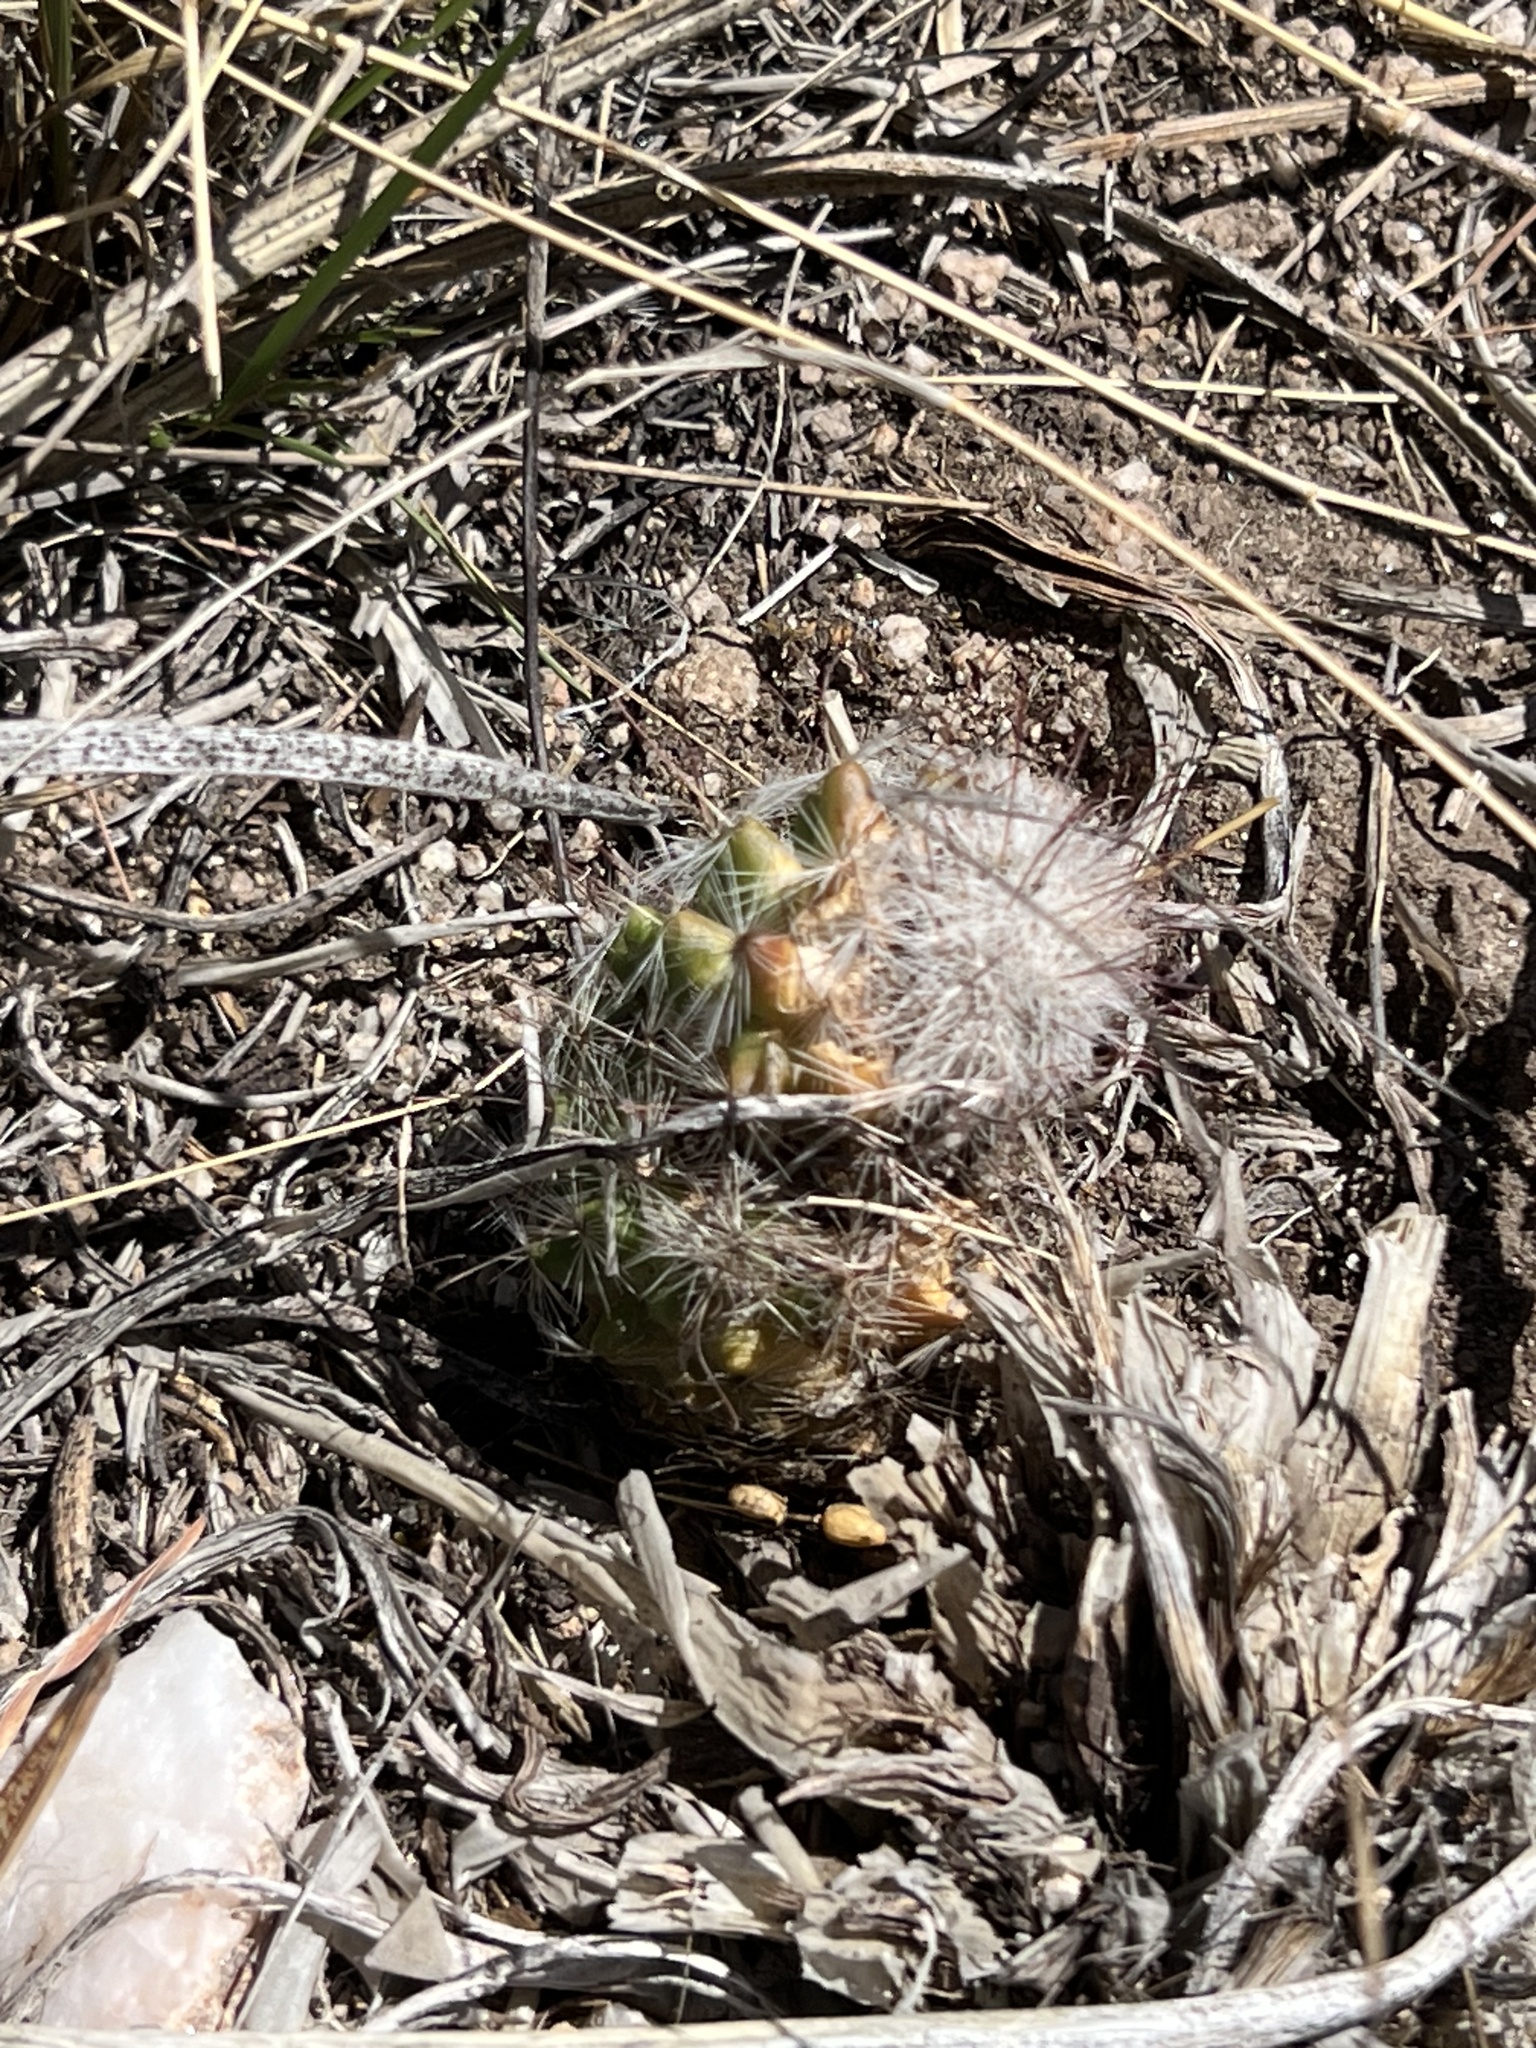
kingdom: Plantae
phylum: Tracheophyta
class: Magnoliopsida
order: Caryophyllales
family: Cactaceae
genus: Cochemiea
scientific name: Cochemiea grahamii
